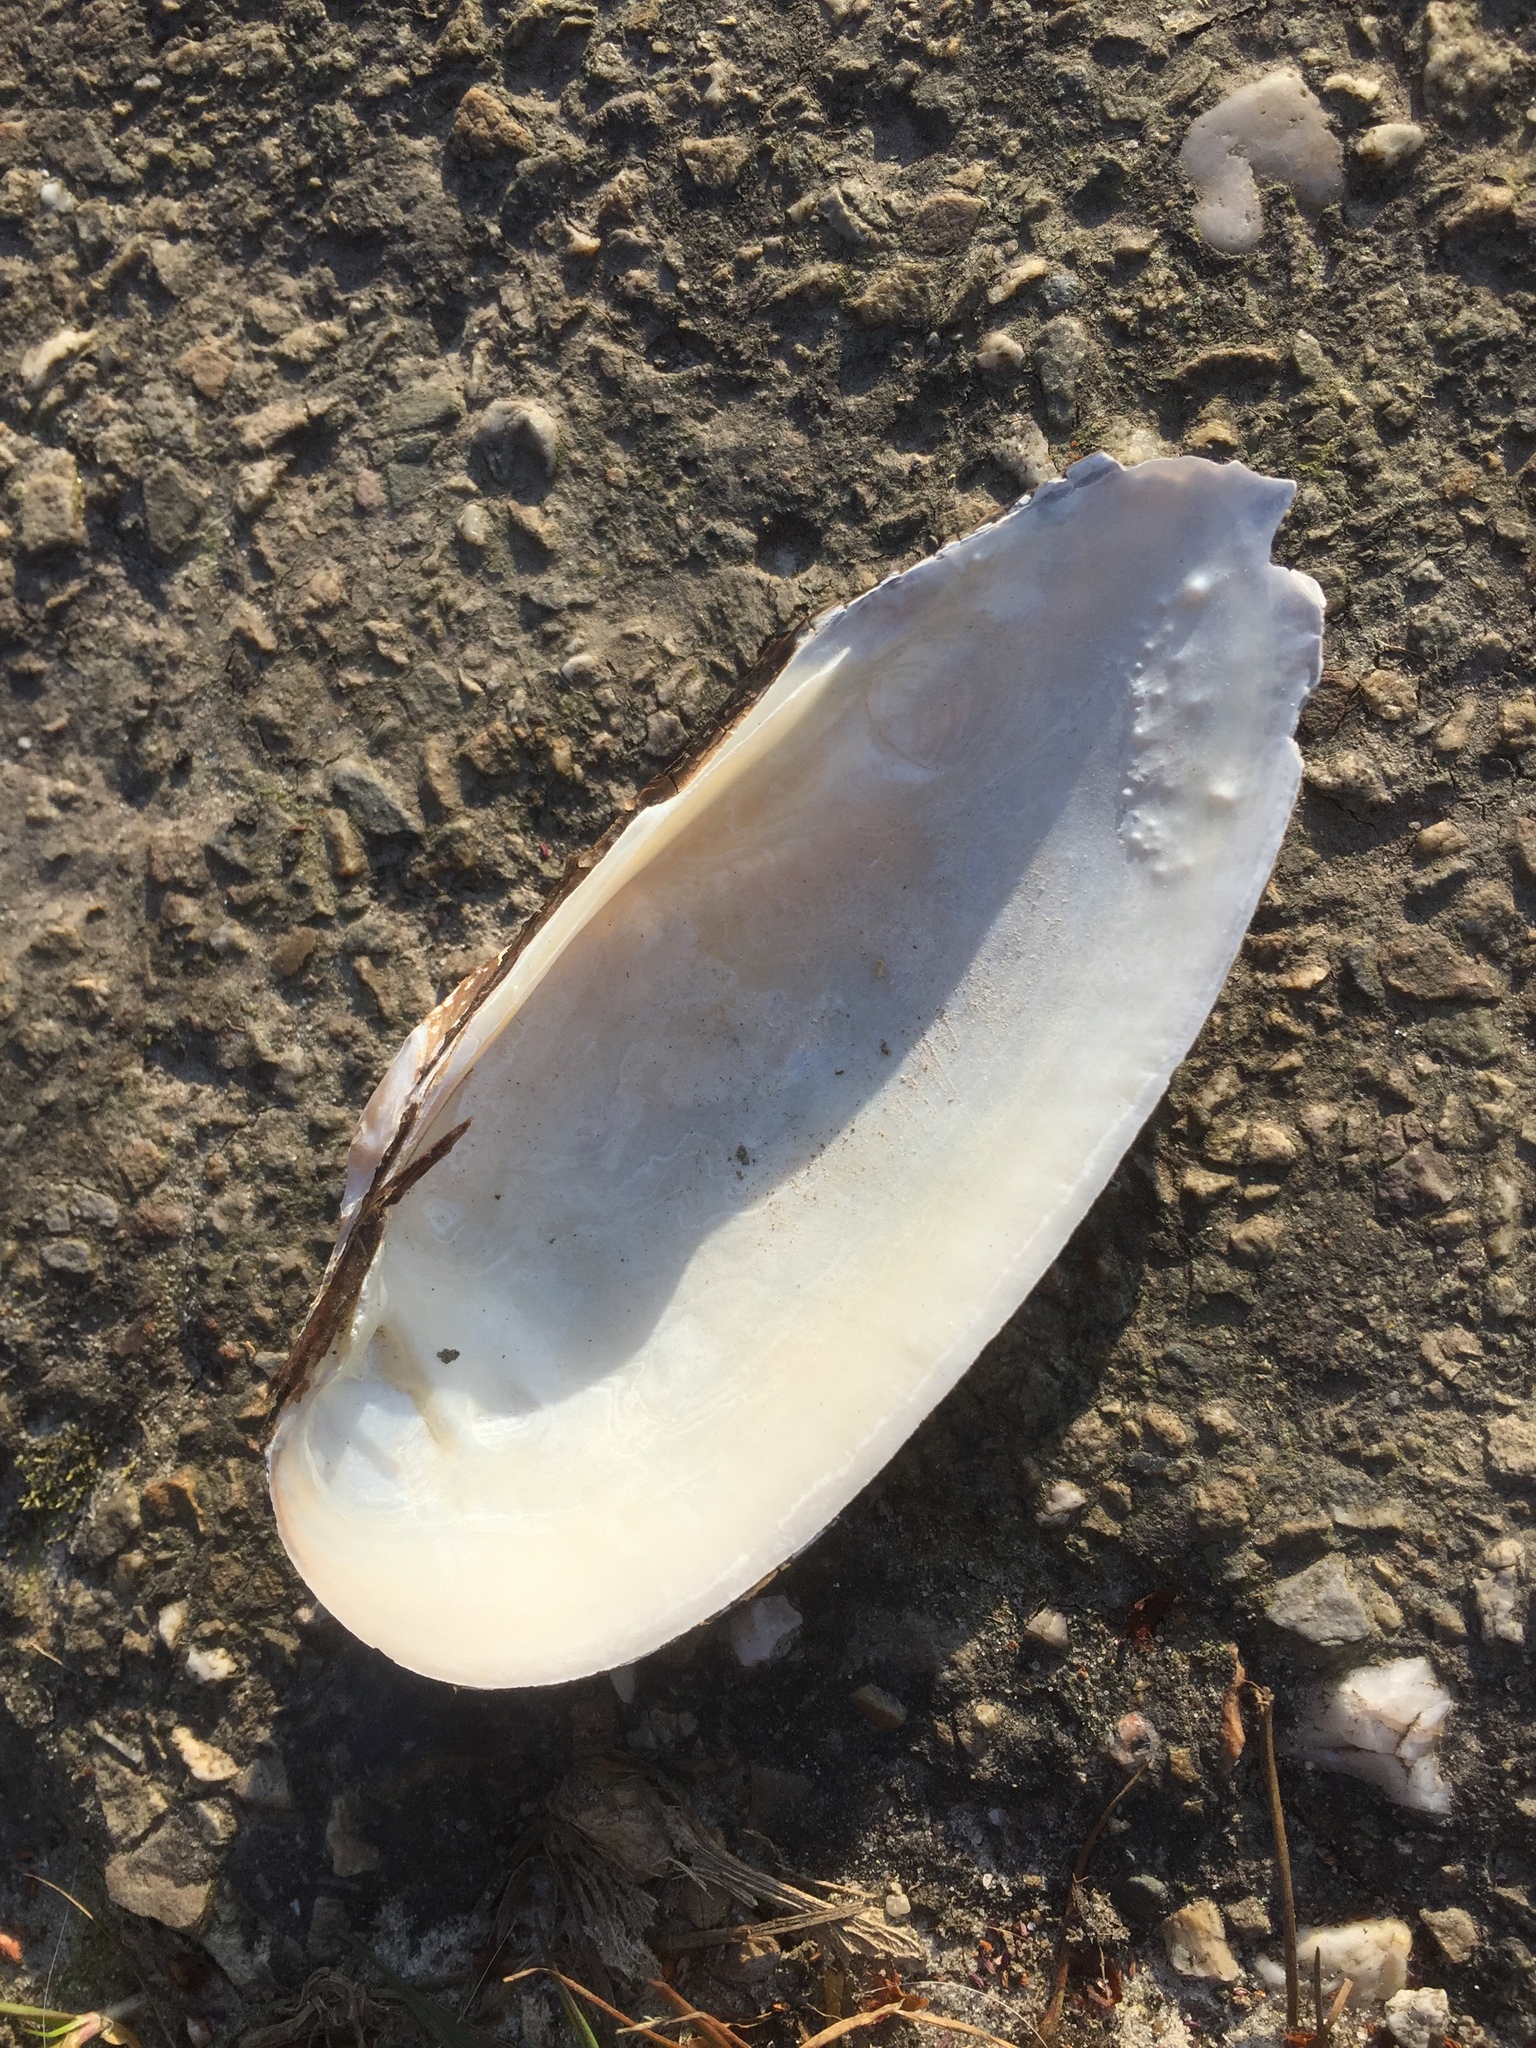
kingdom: Animalia
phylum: Mollusca
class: Bivalvia
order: Unionida
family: Unionidae
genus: Unio
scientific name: Unio pictorum
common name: Painter's mussel
